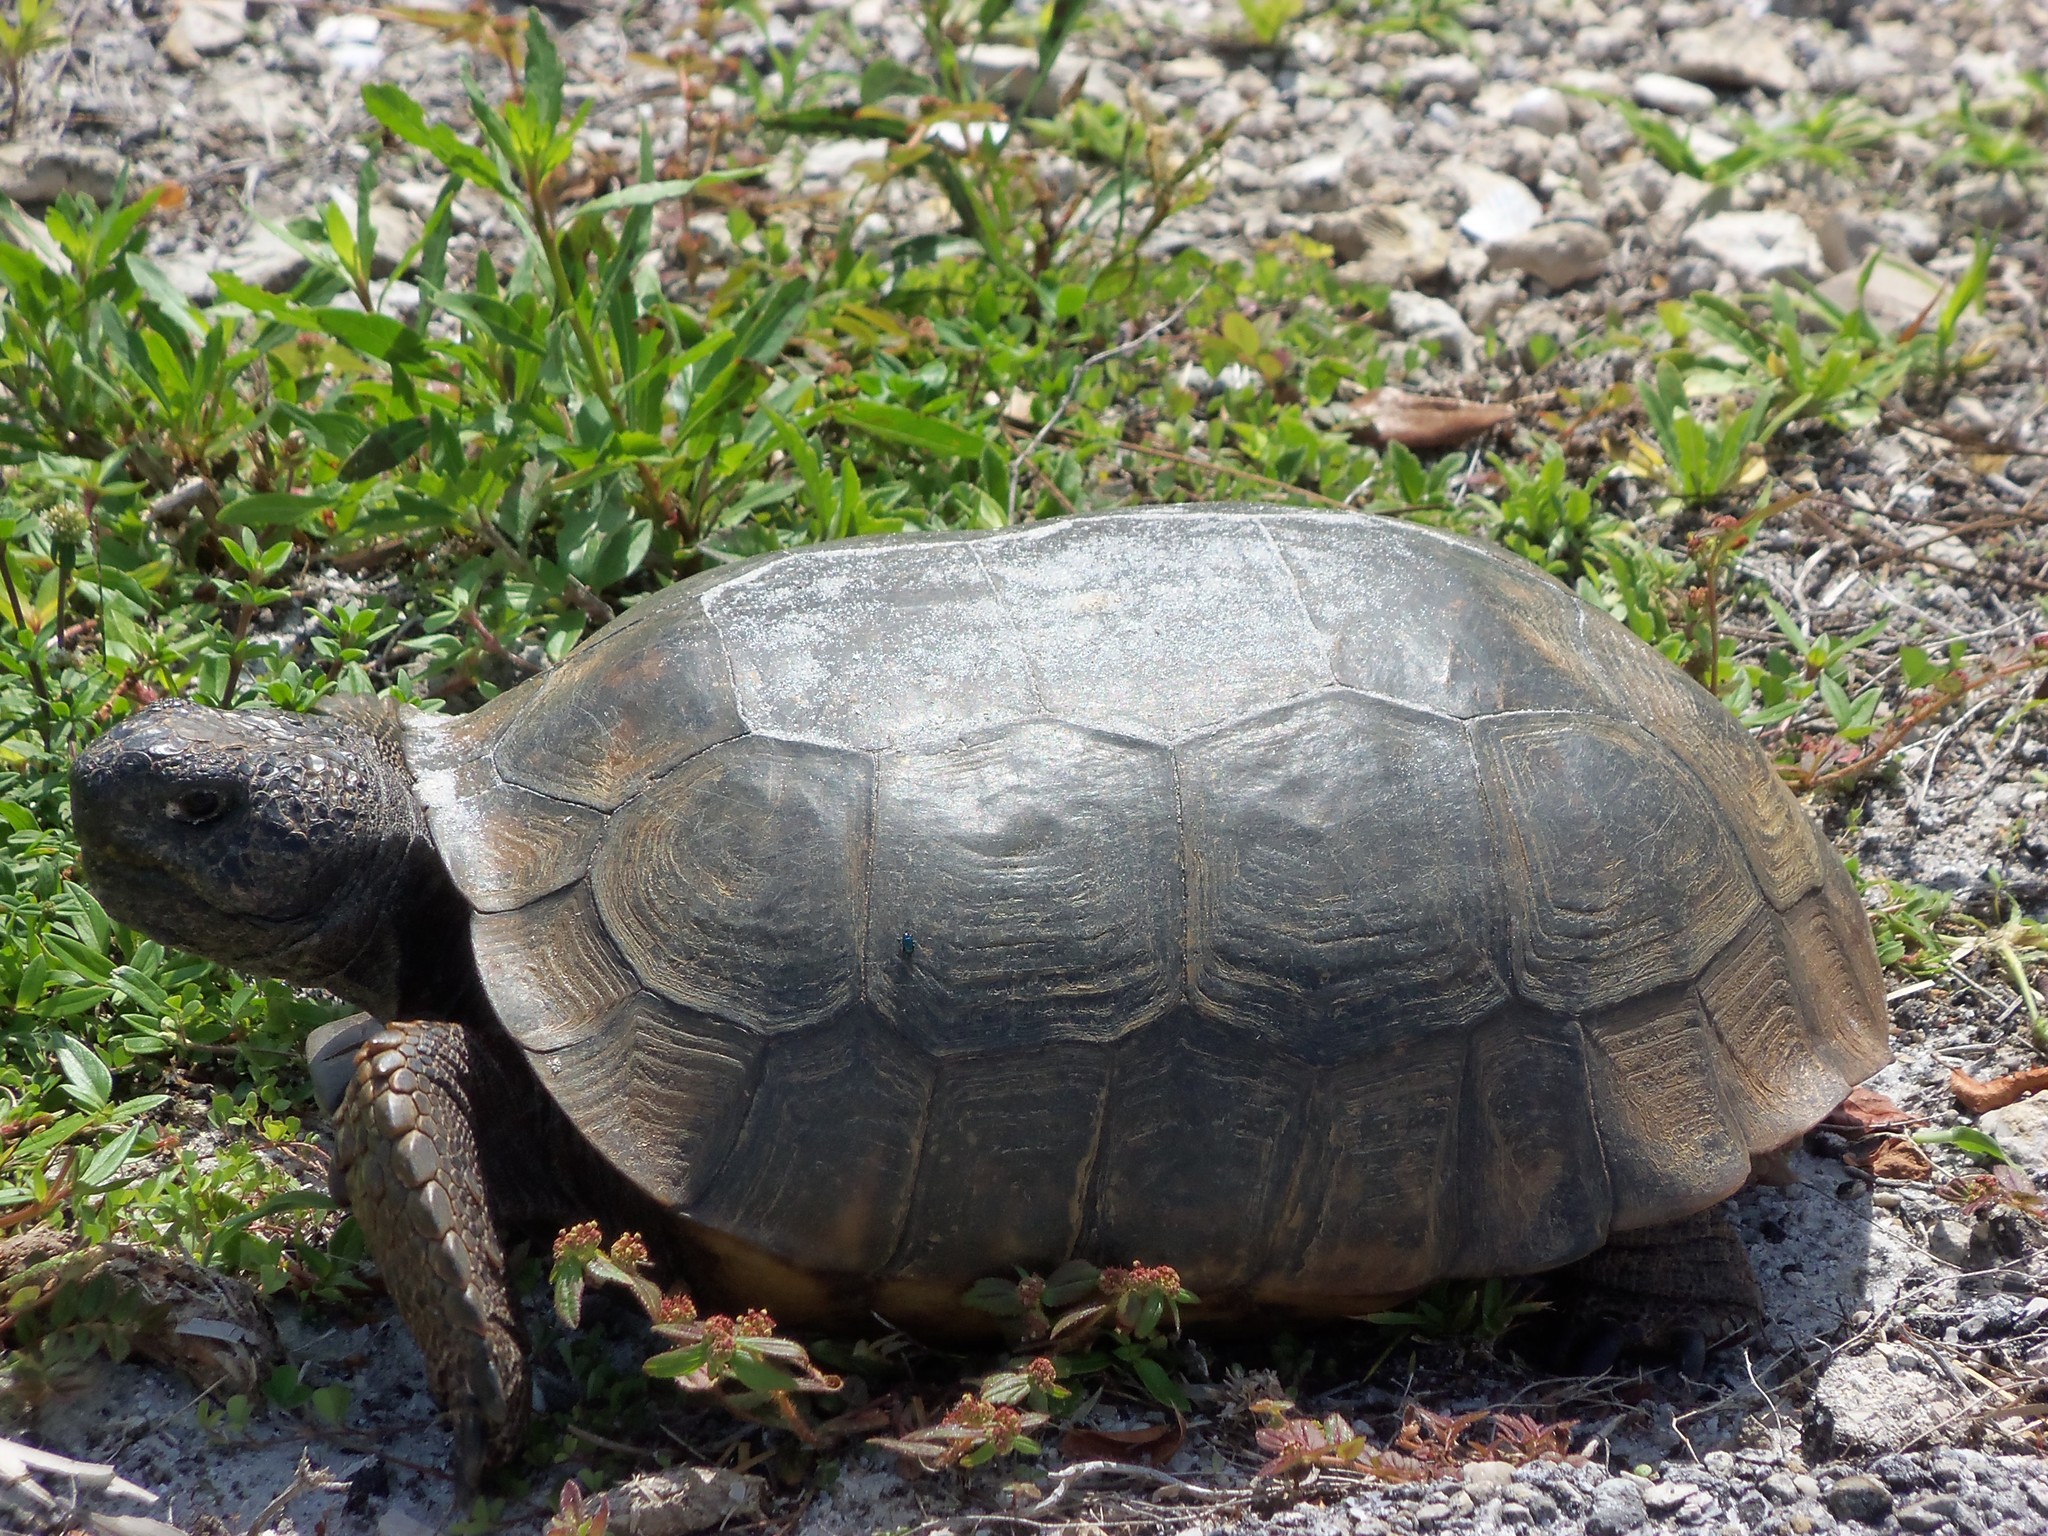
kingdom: Animalia
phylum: Chordata
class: Testudines
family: Testudinidae
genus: Gopherus
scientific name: Gopherus polyphemus
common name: Florida gopher tortoise
